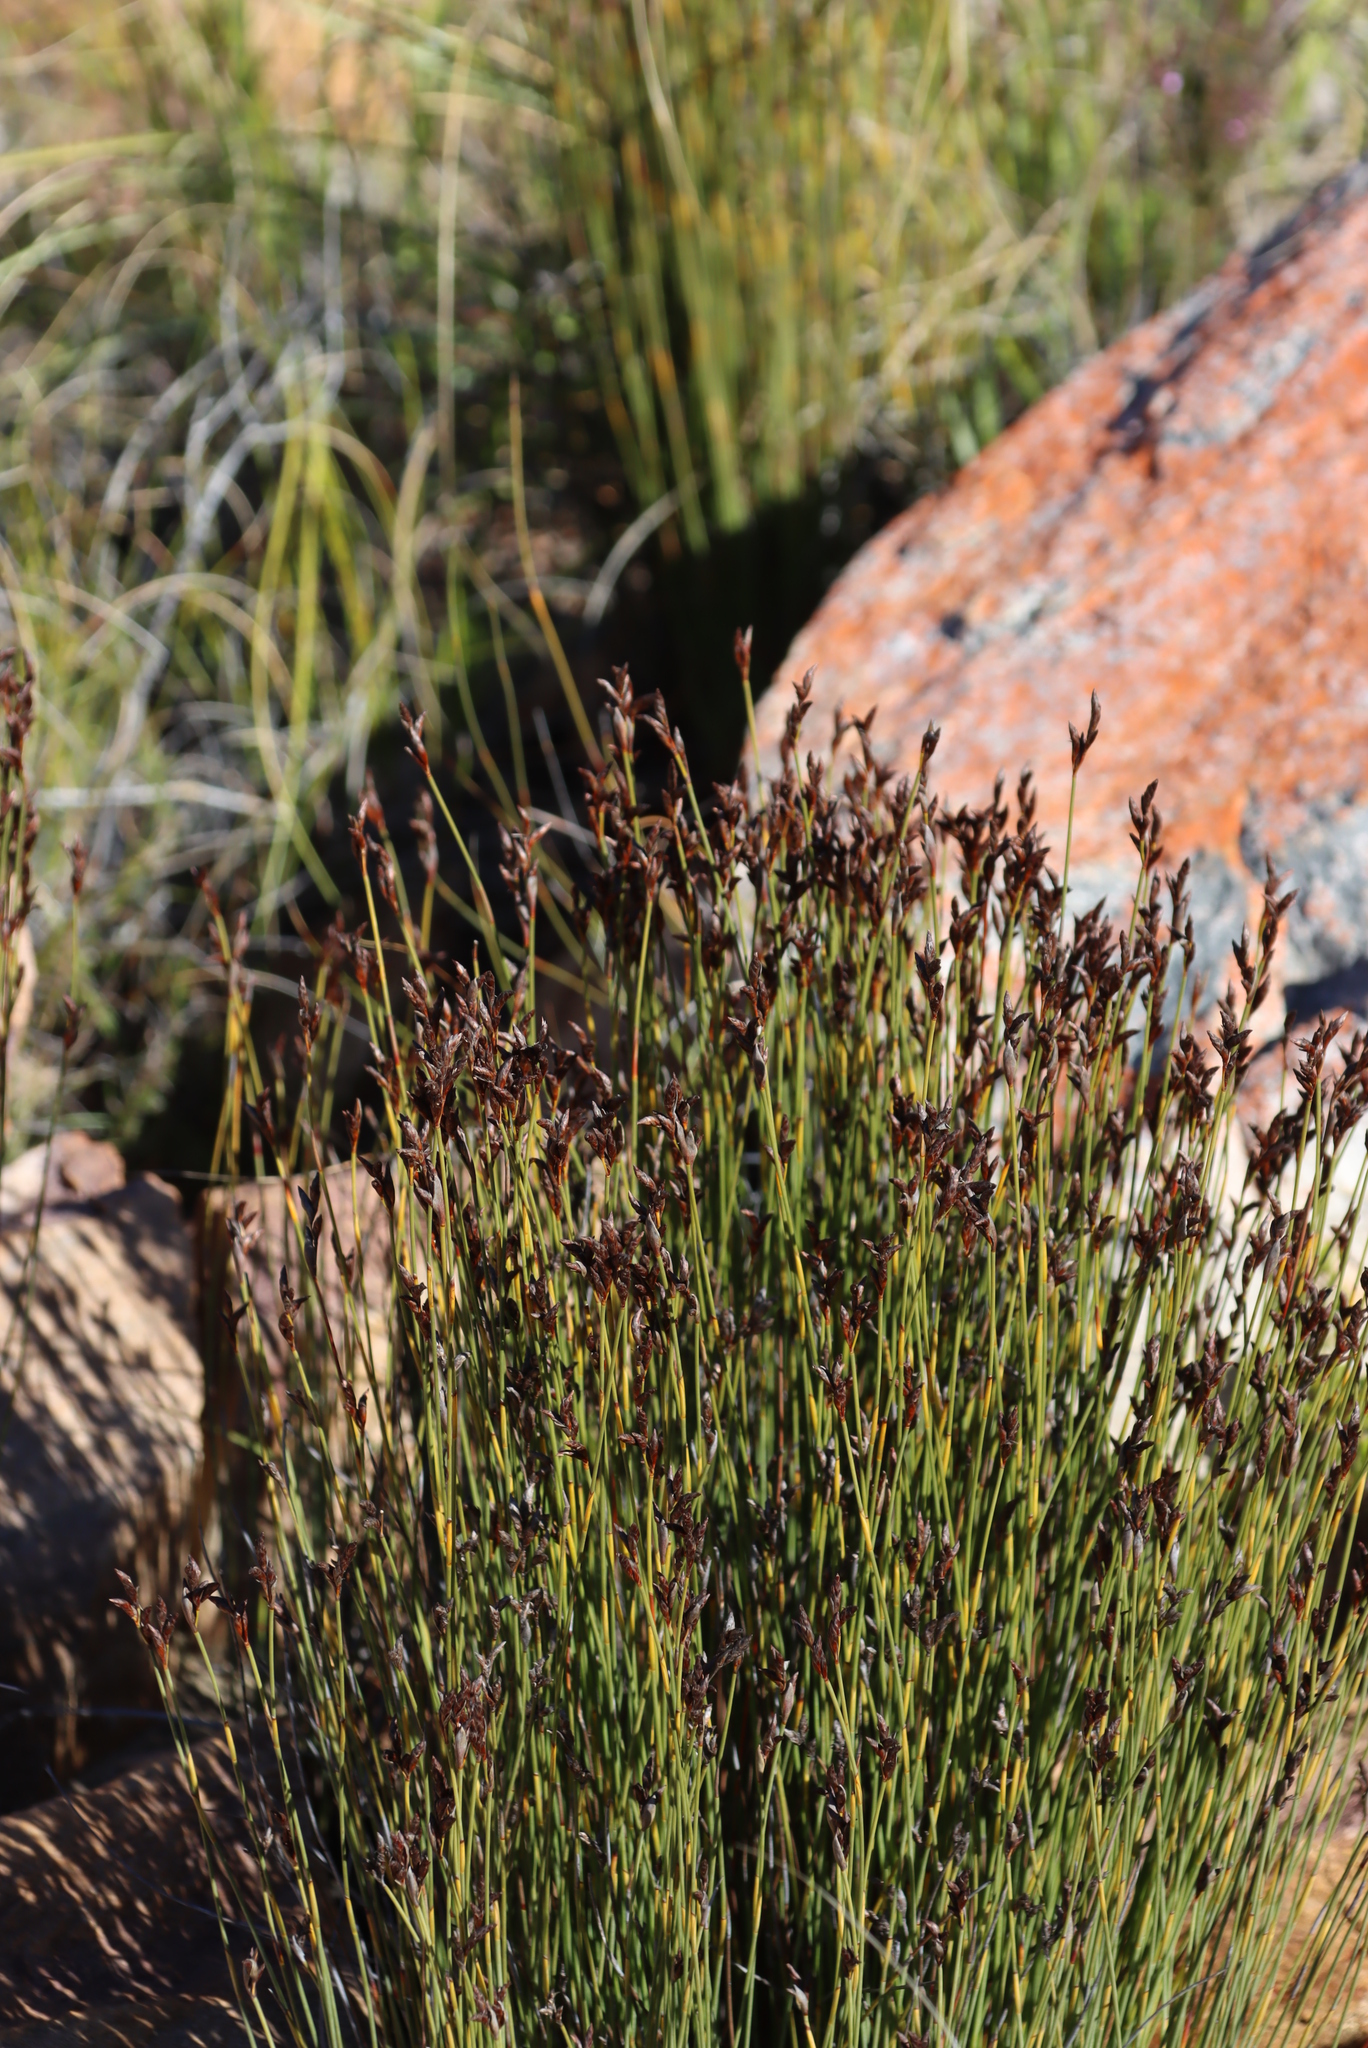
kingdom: Plantae
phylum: Tracheophyta
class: Liliopsida
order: Poales
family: Restionaceae
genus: Hypodiscus
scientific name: Hypodiscus striatus
